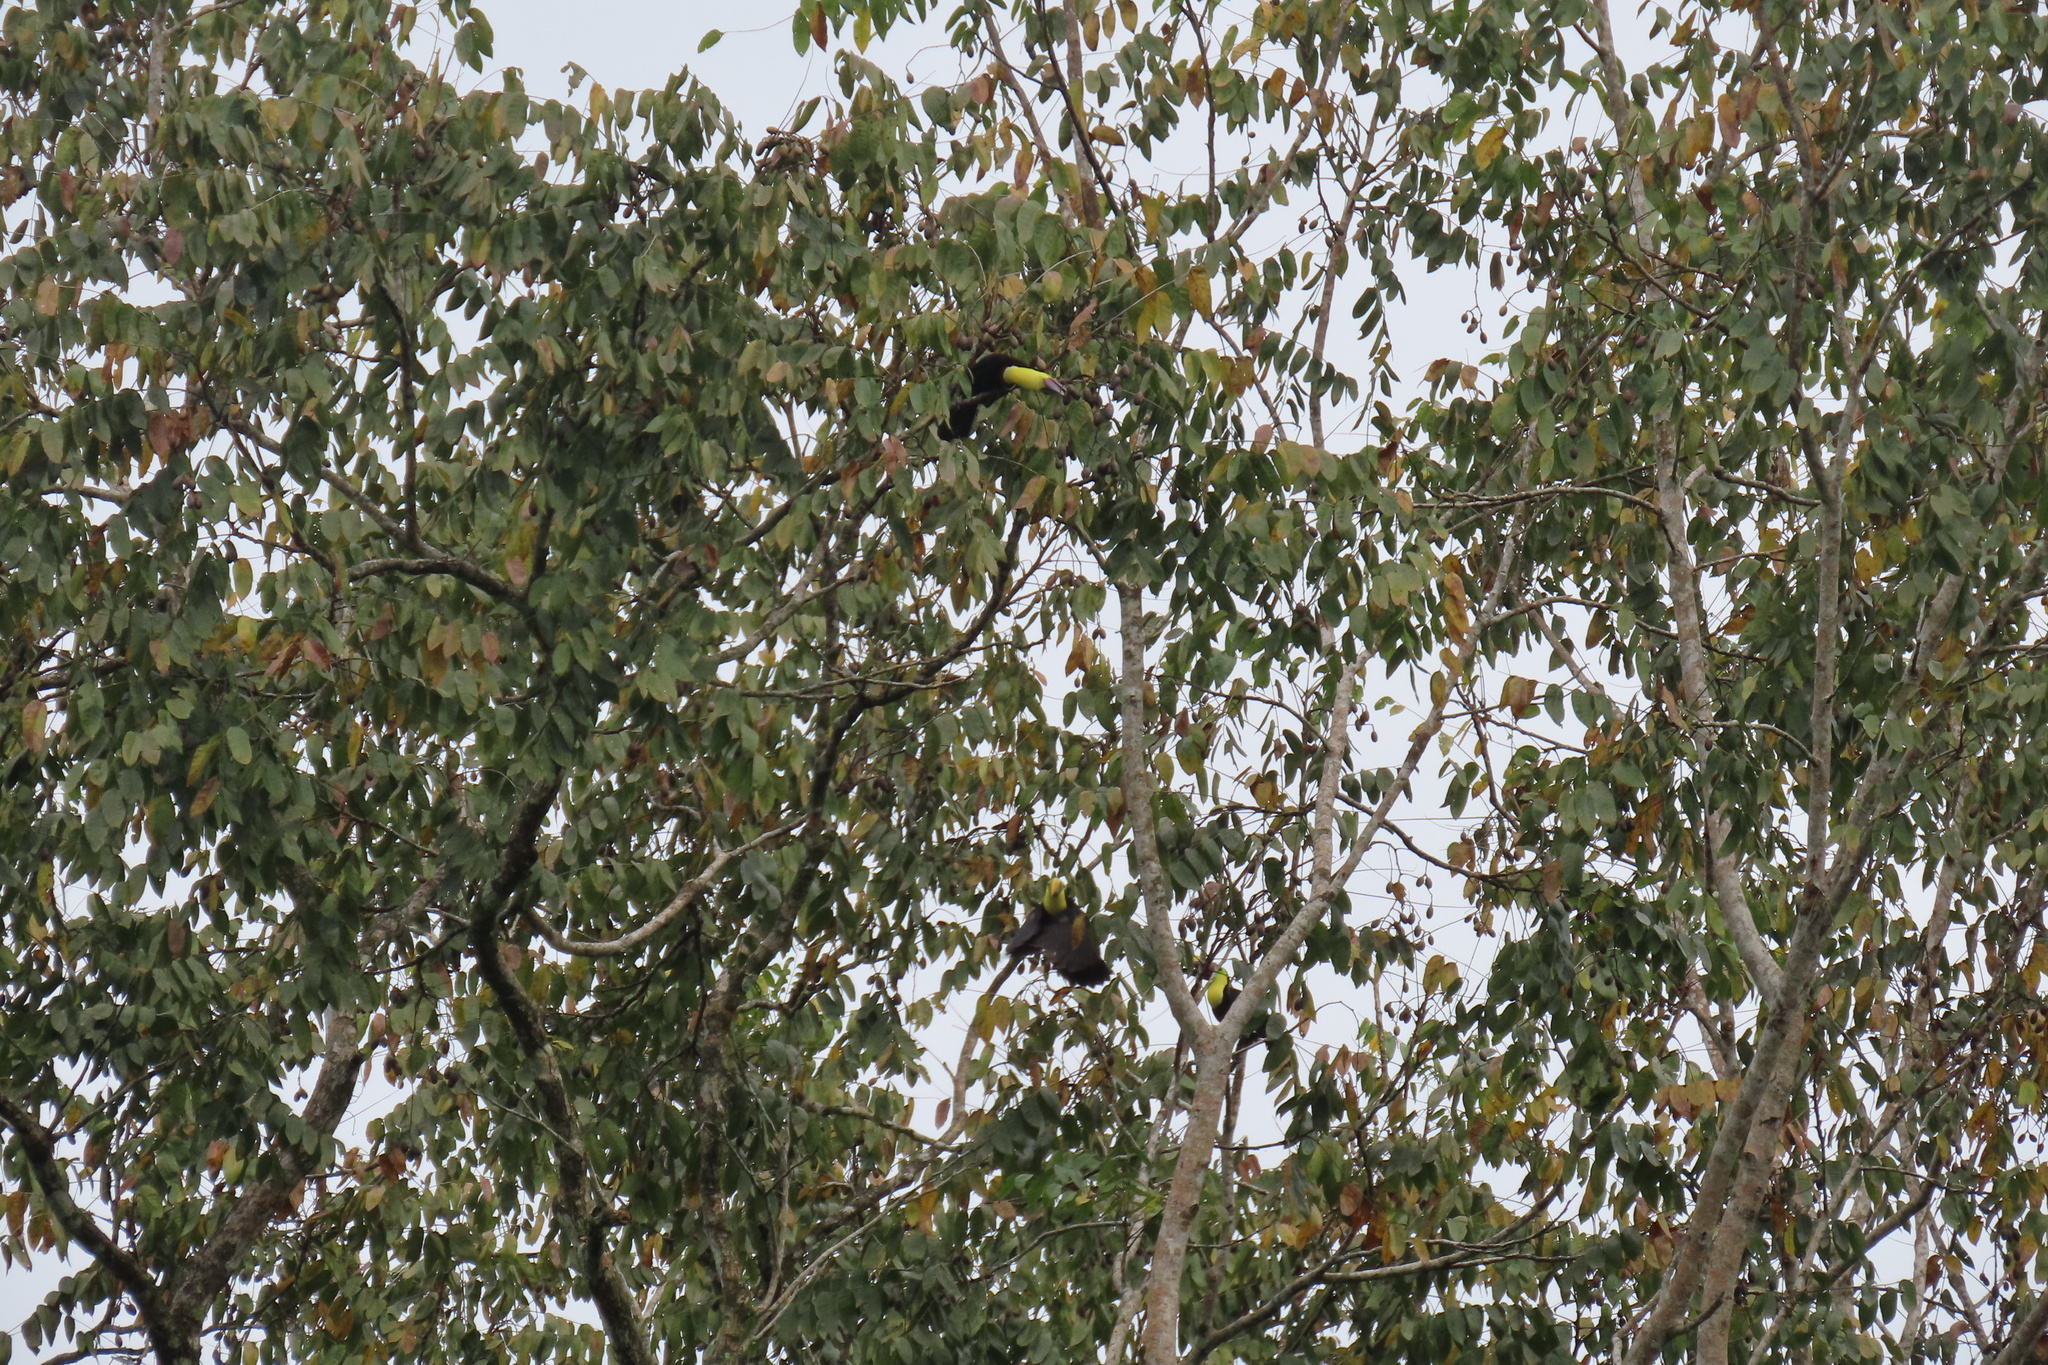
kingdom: Animalia
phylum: Chordata
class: Aves
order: Piciformes
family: Ramphastidae
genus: Ramphastos
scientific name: Ramphastos ambiguus
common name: Yellow-throated toucan
